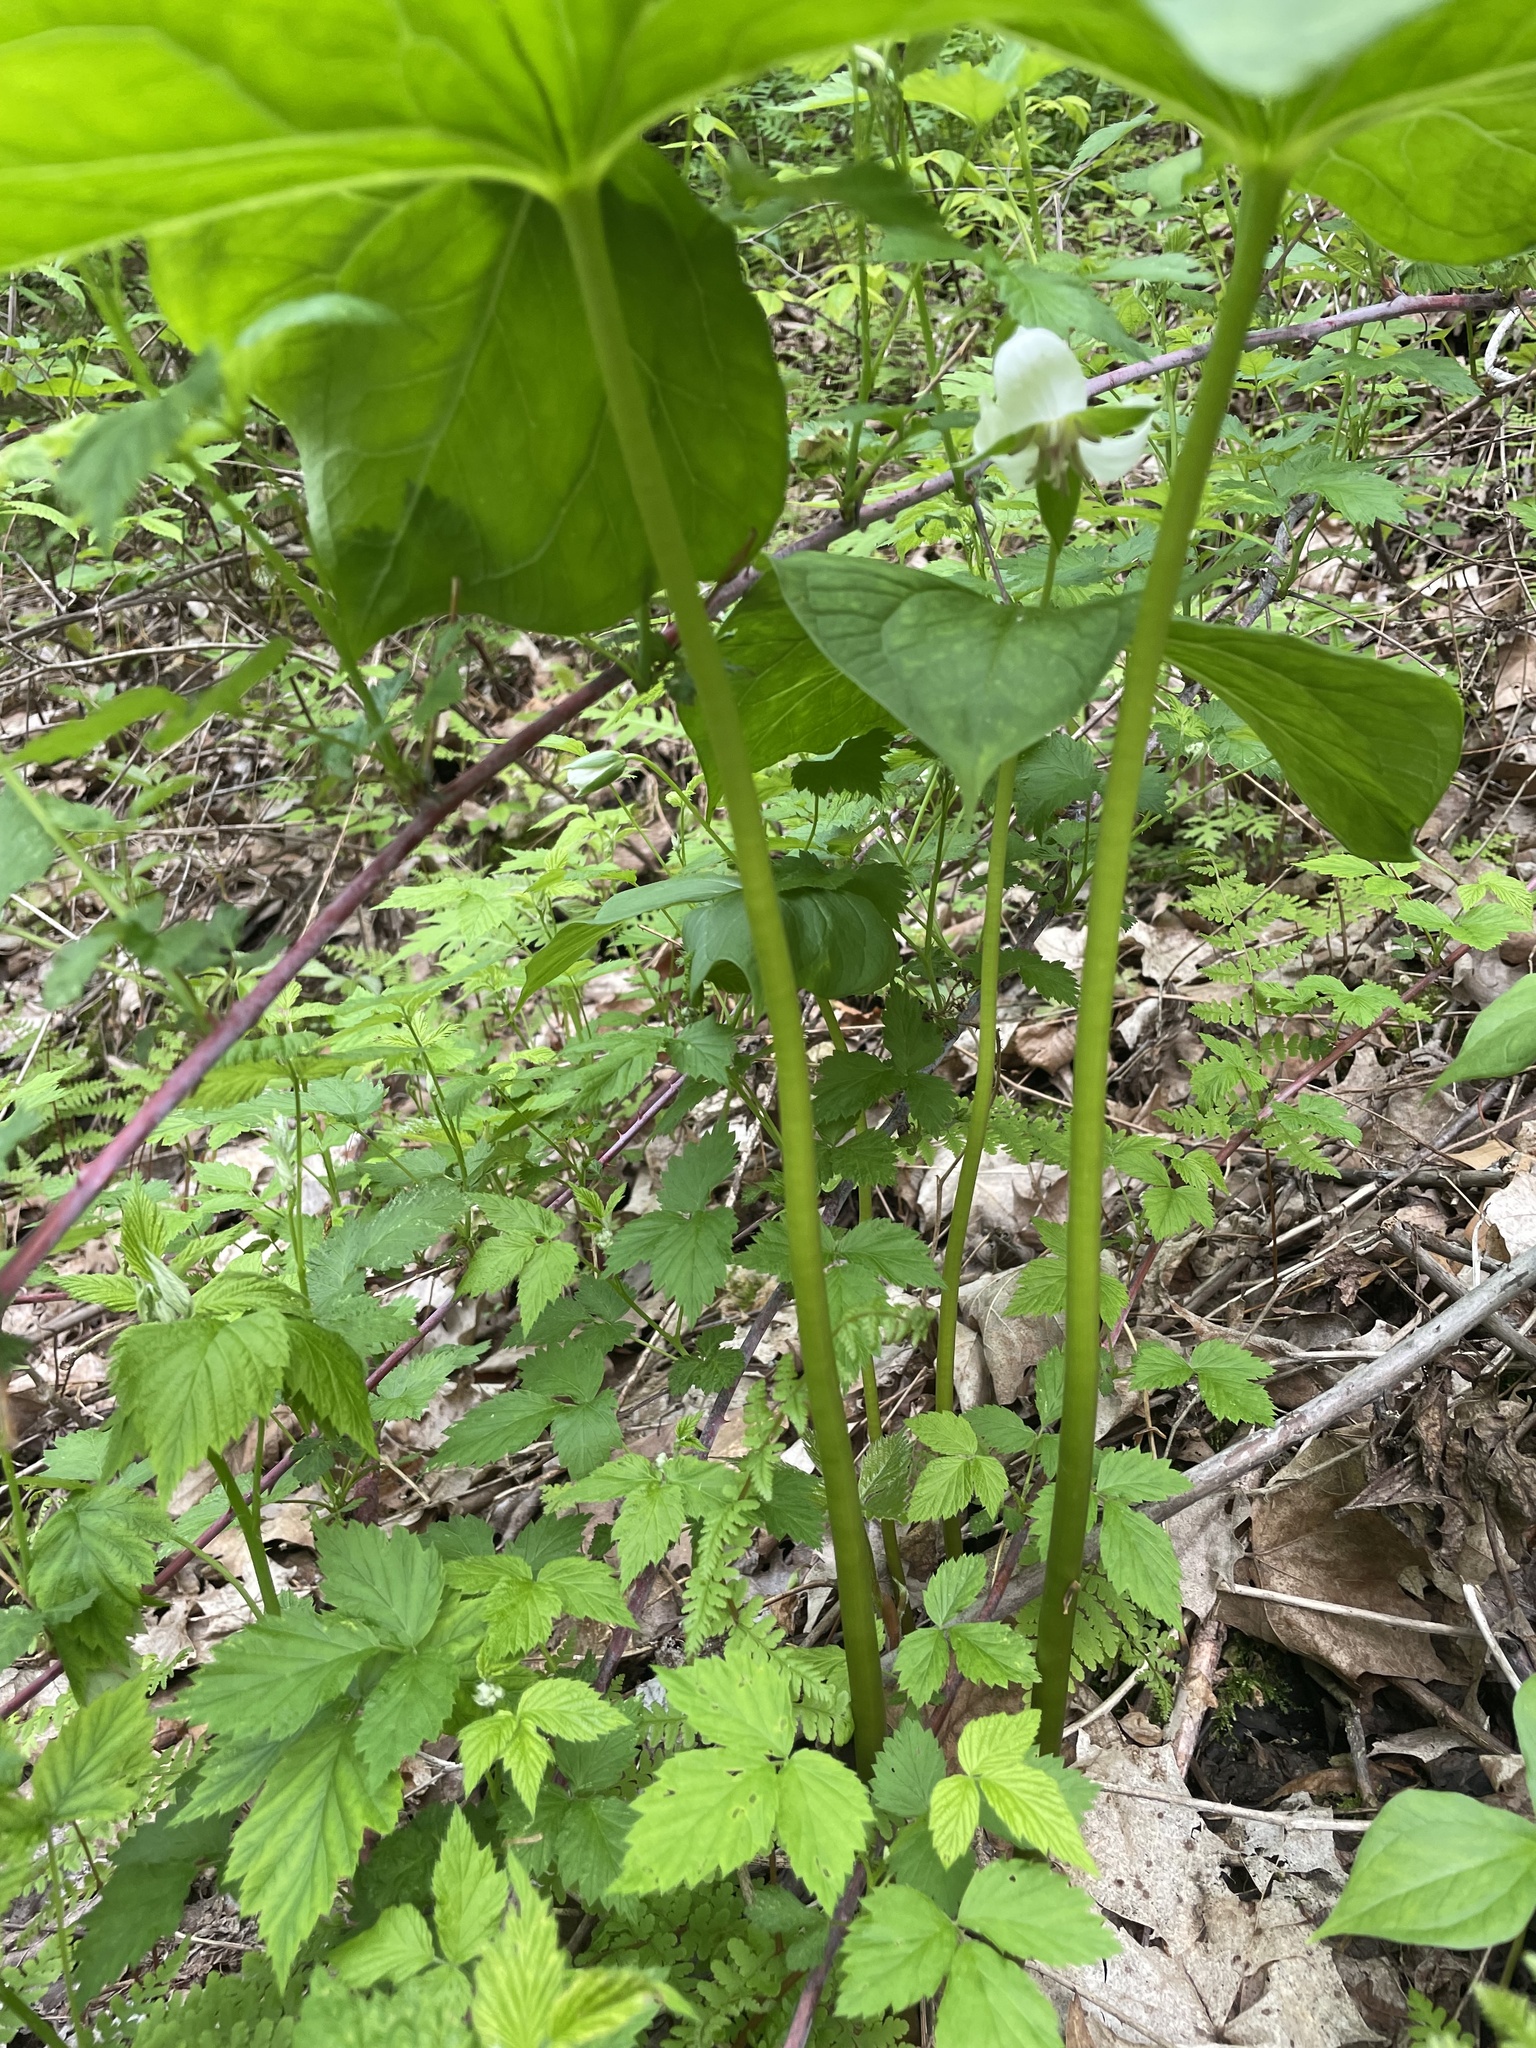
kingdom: Plantae
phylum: Tracheophyta
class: Liliopsida
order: Liliales
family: Melanthiaceae
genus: Trillium
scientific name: Trillium flexipes
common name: Drooping trillium
